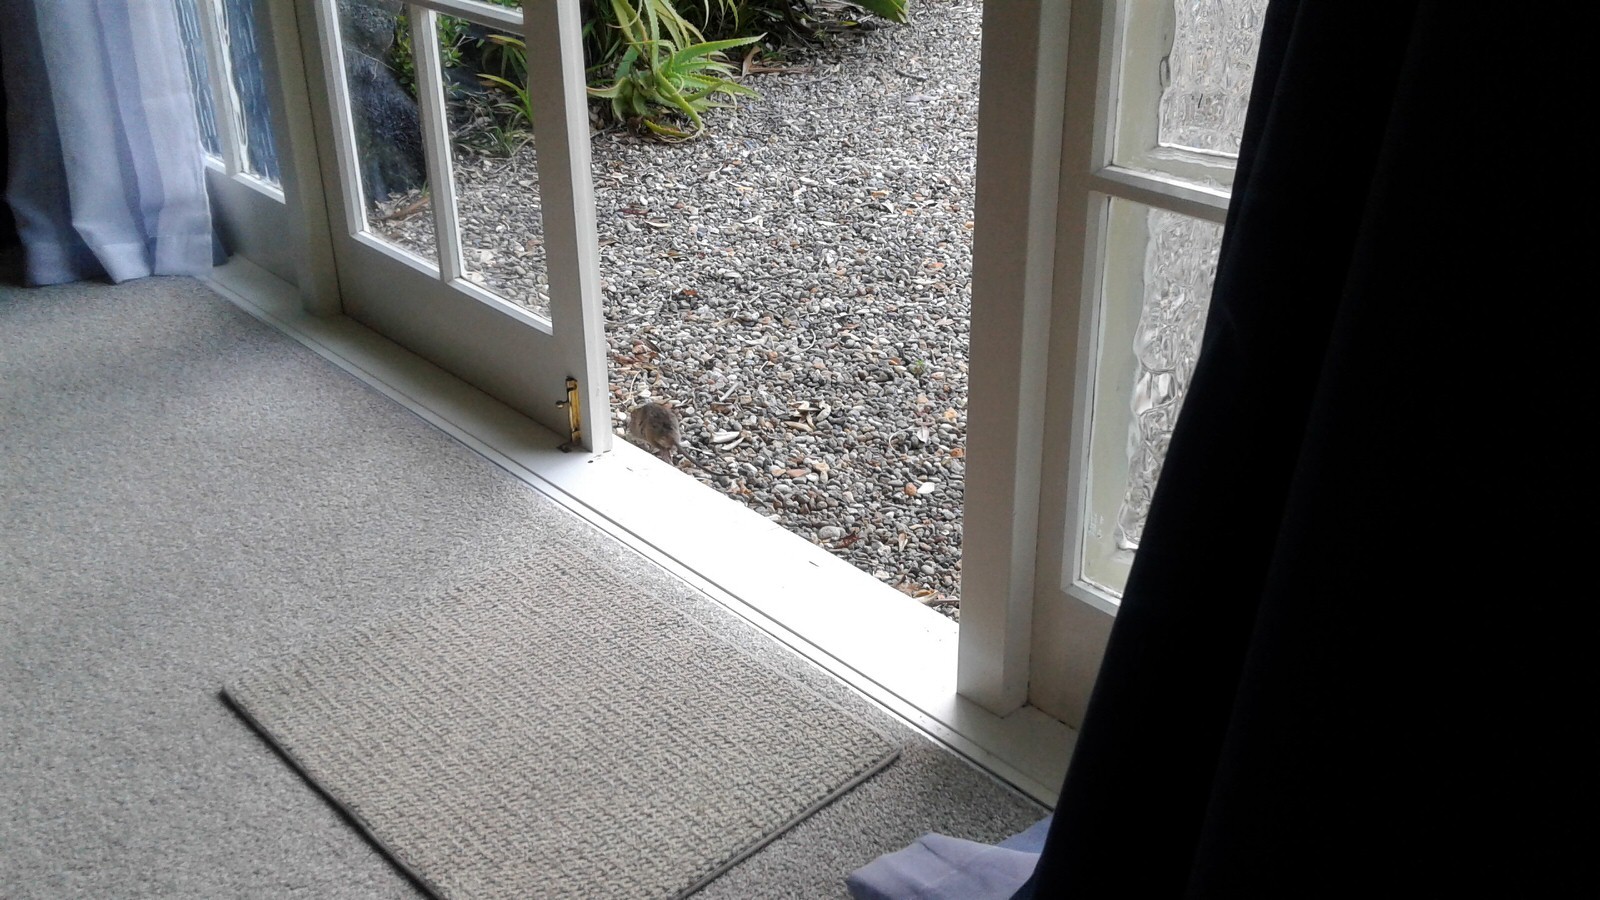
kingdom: Animalia
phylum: Chordata
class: Mammalia
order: Rodentia
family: Muridae
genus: Rattus
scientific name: Rattus rattus
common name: Black rat
